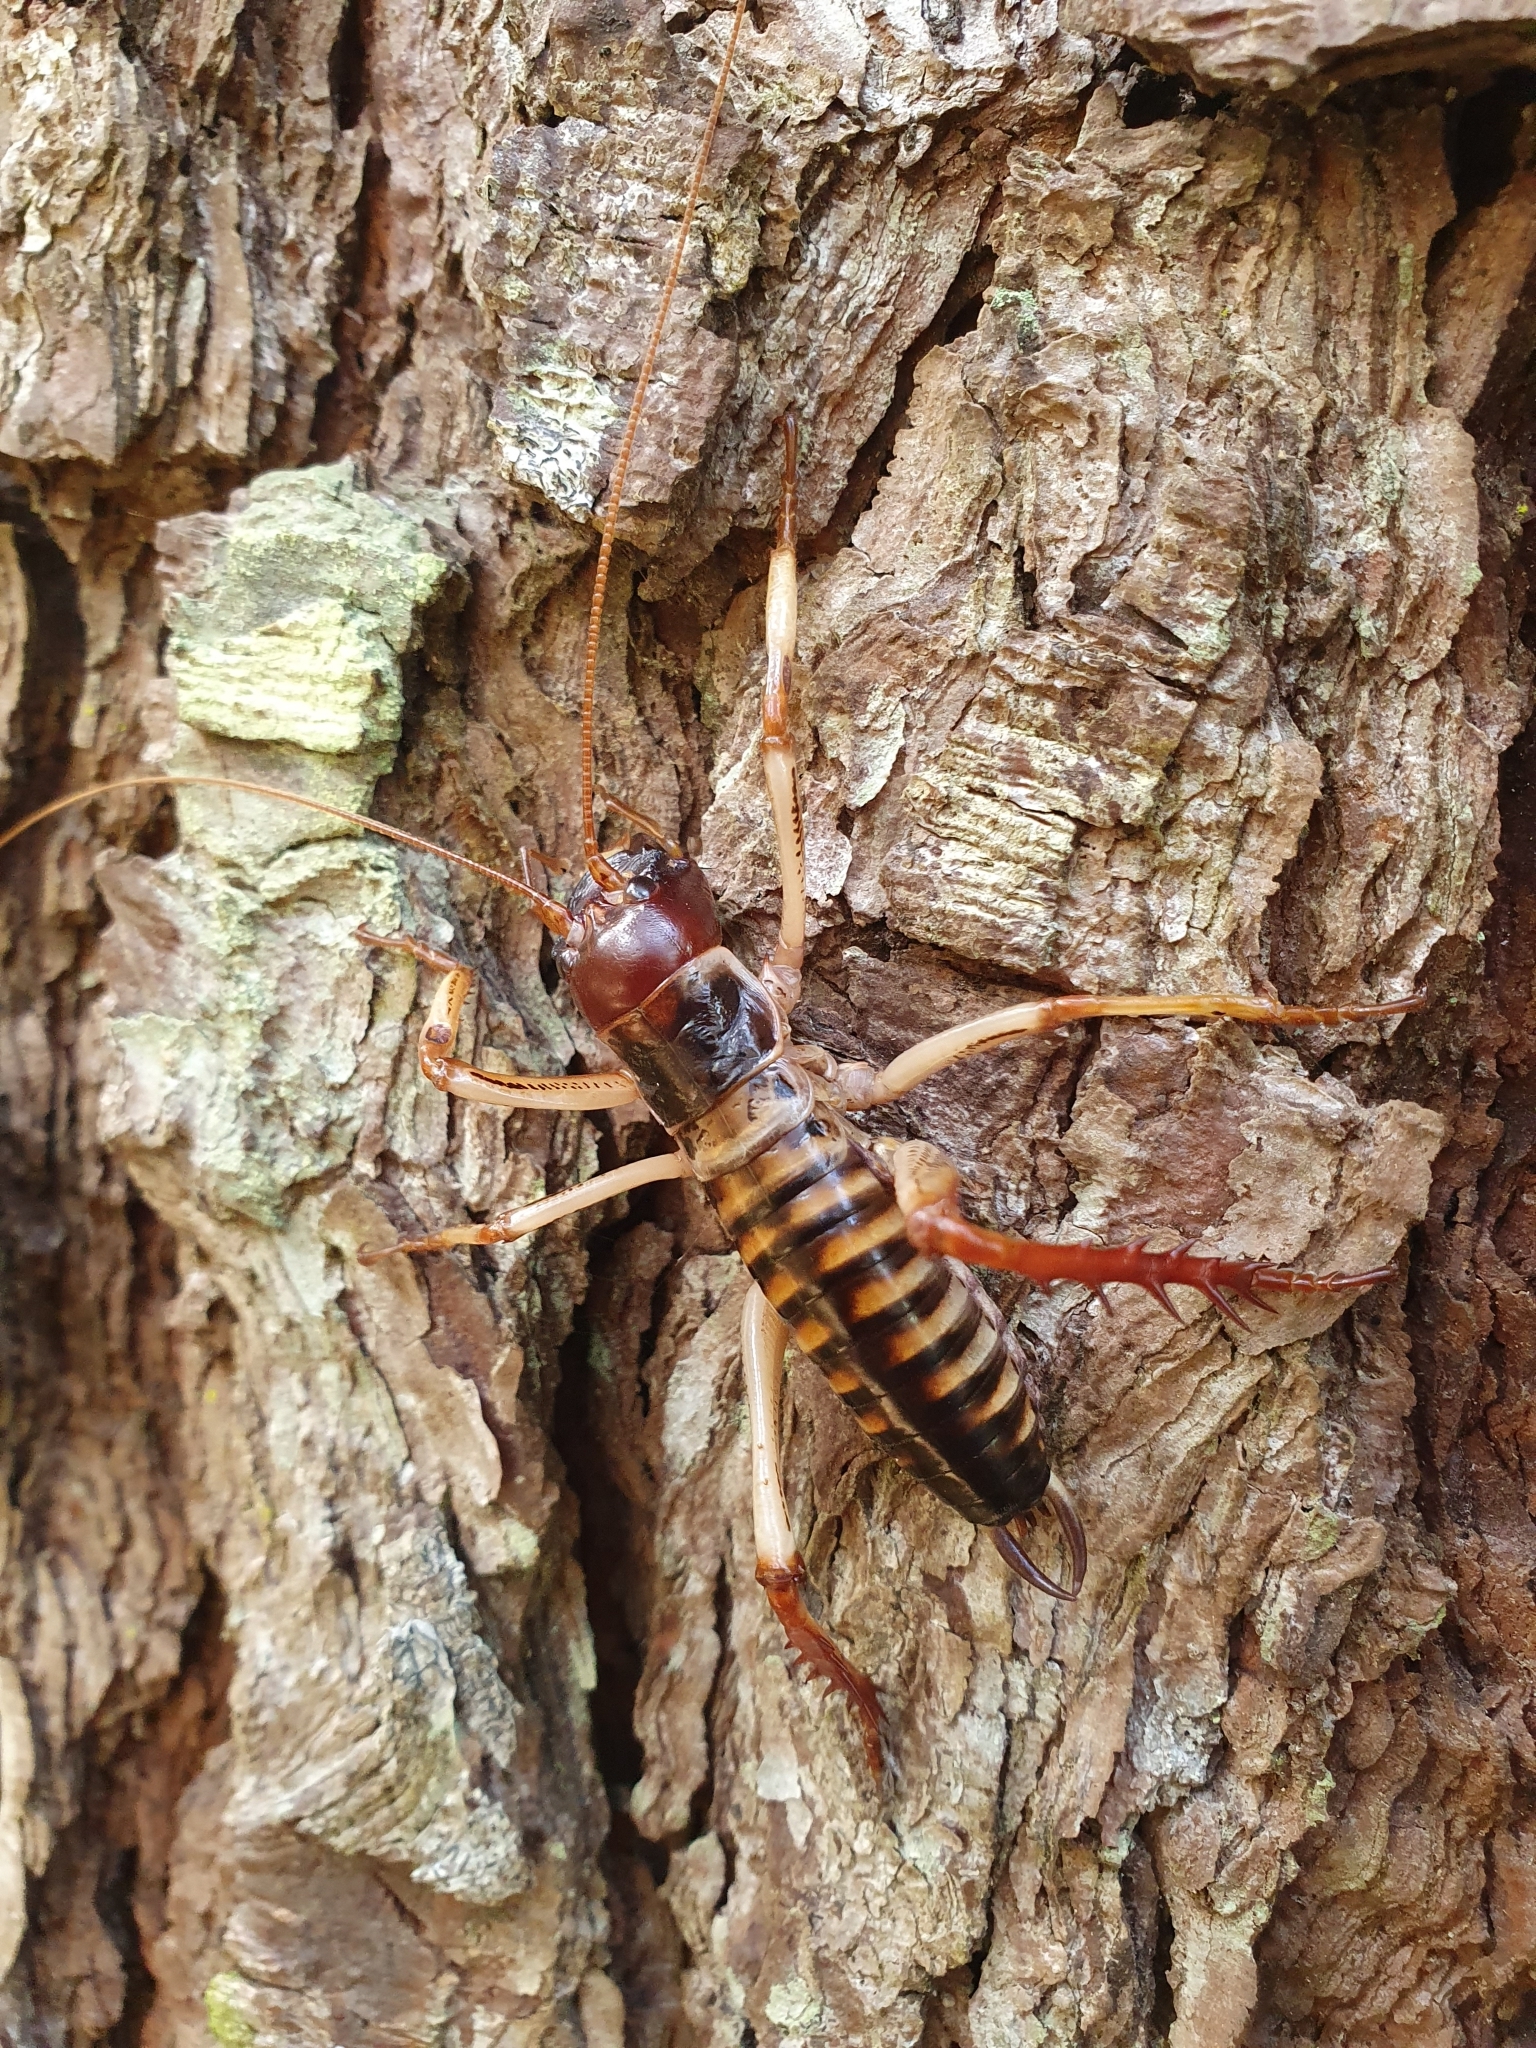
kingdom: Animalia
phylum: Arthropoda
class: Insecta
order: Orthoptera
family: Anostostomatidae
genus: Hemideina
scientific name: Hemideina crassidens
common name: Wellington tree weta
